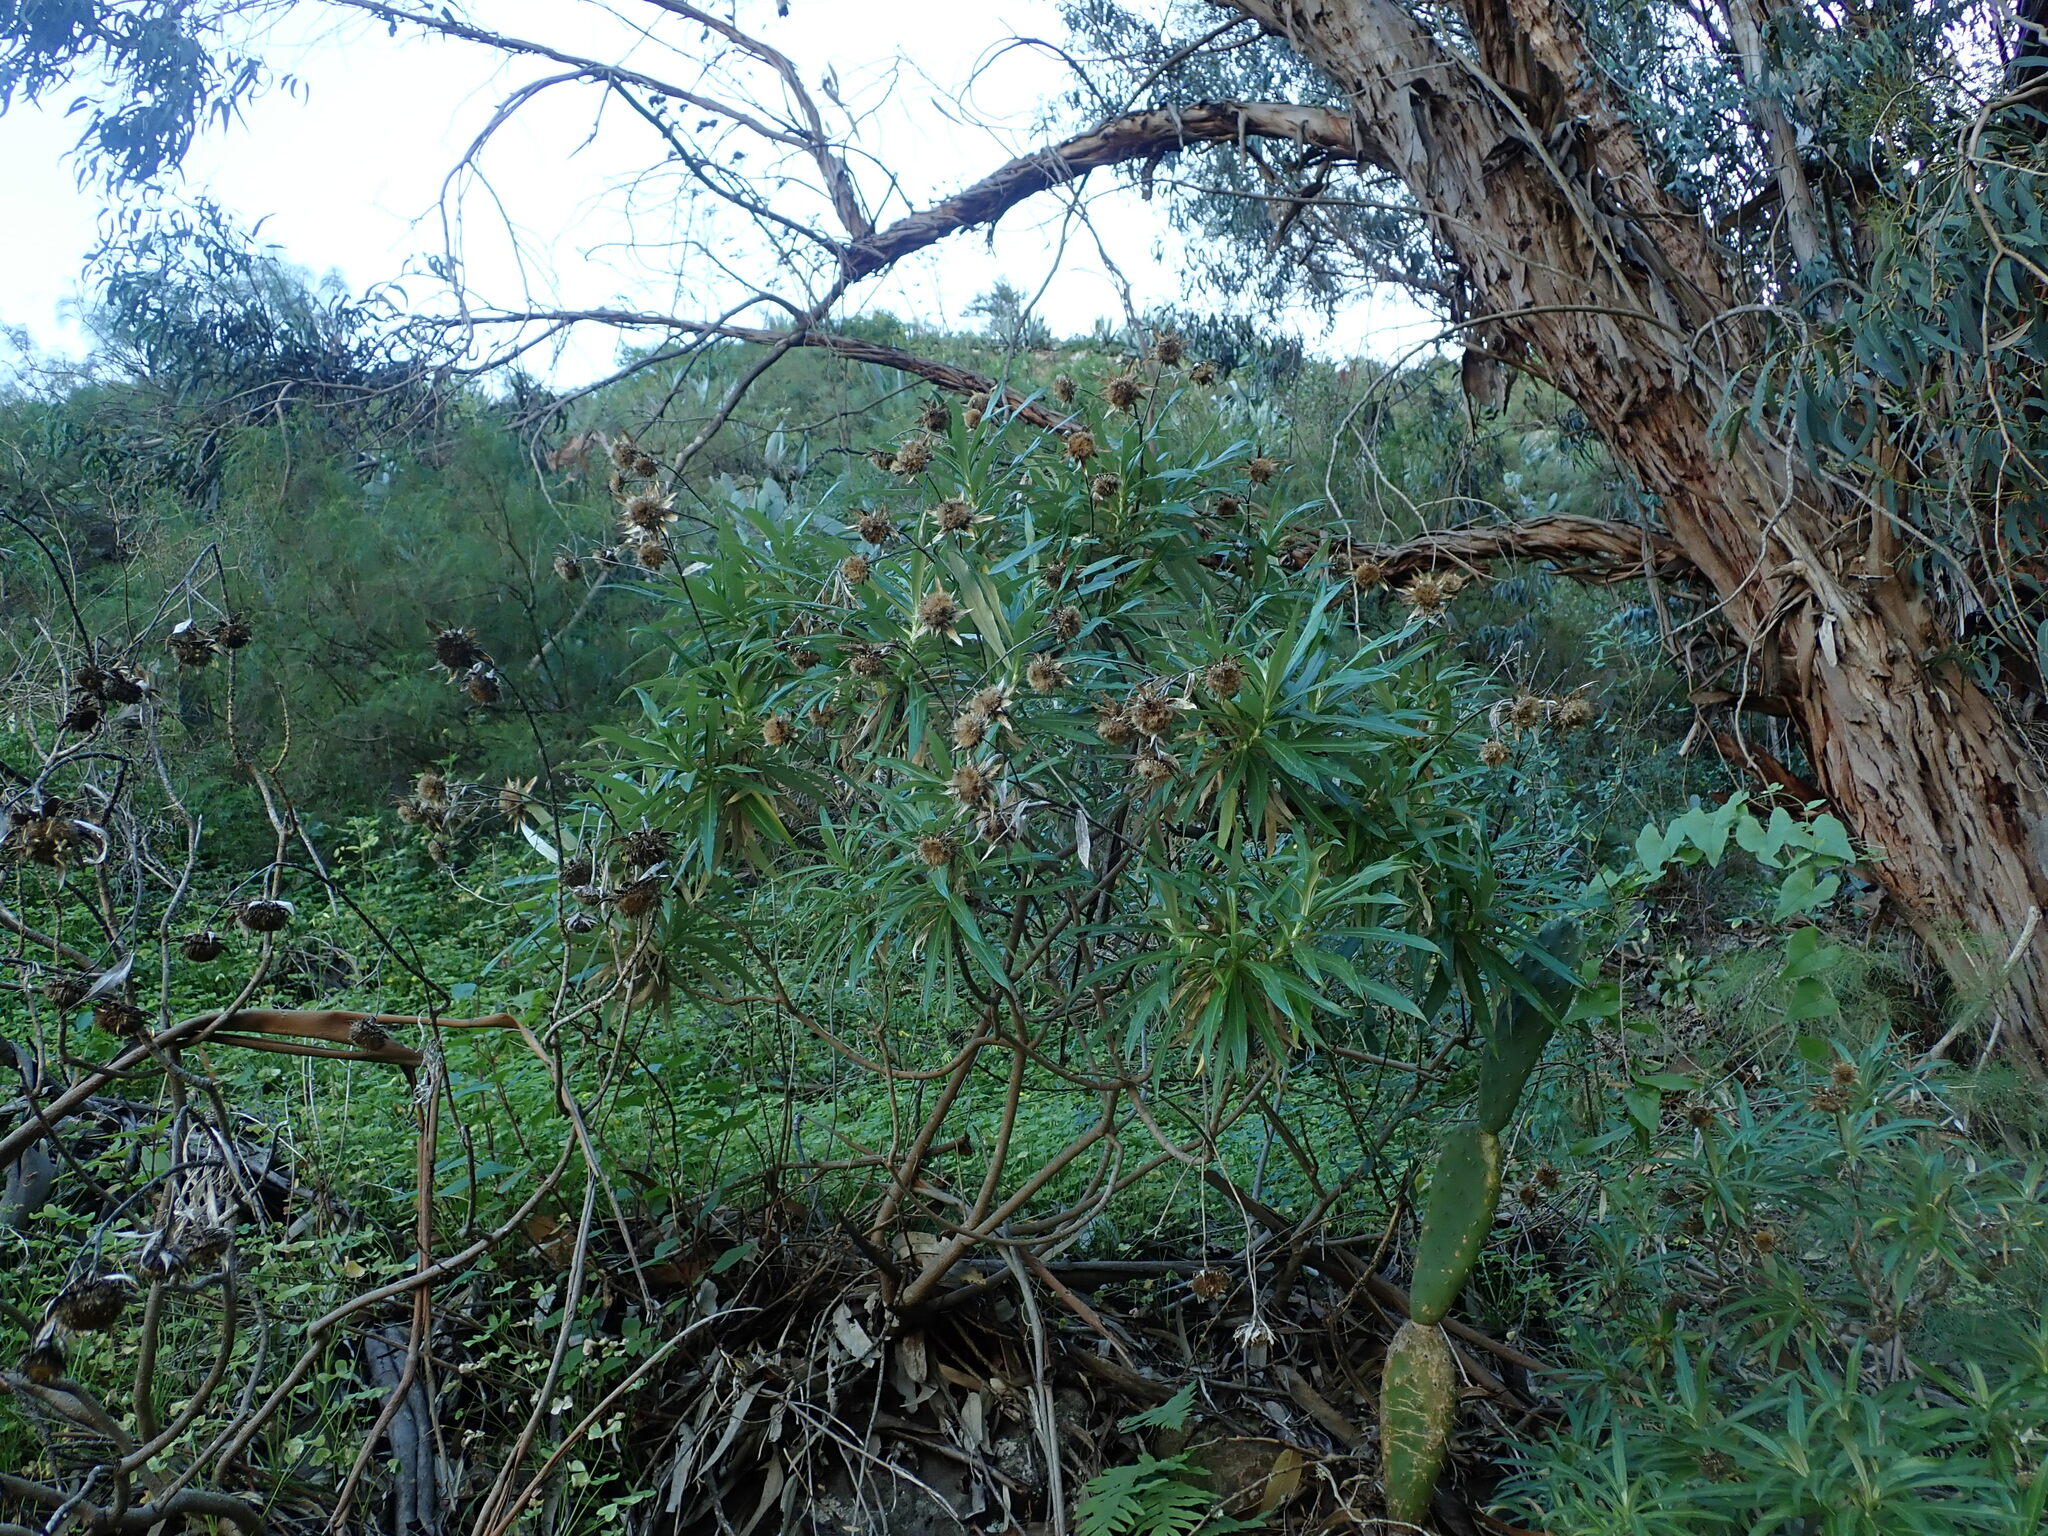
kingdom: Plantae
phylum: Tracheophyta
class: Magnoliopsida
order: Asterales
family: Asteraceae
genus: Carlina
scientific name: Carlina salicifolia
